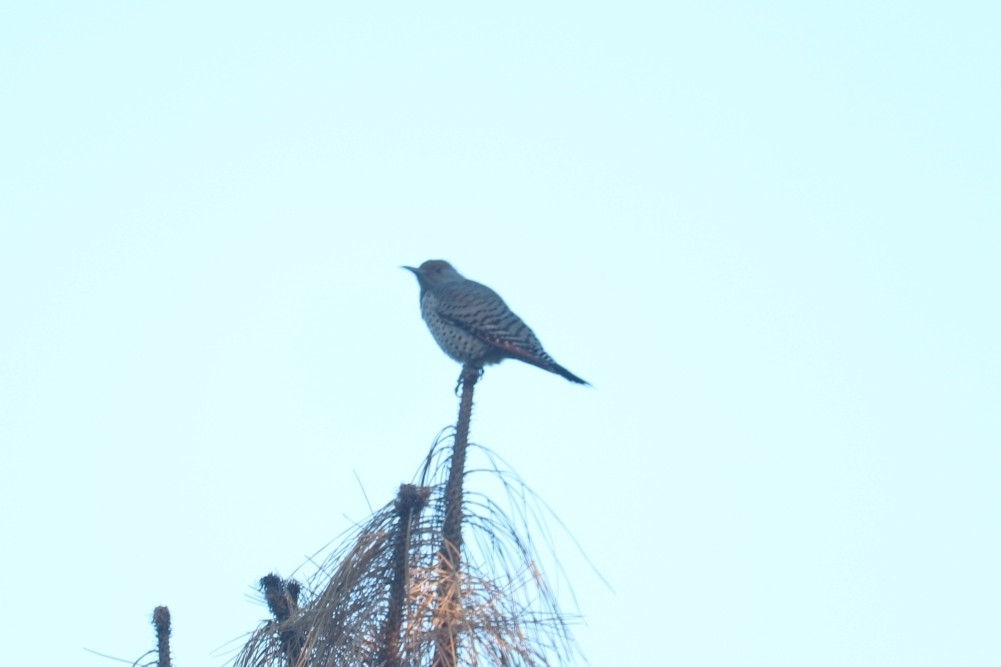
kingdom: Animalia
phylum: Chordata
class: Aves
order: Piciformes
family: Picidae
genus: Colaptes
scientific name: Colaptes auratus
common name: Northern flicker
